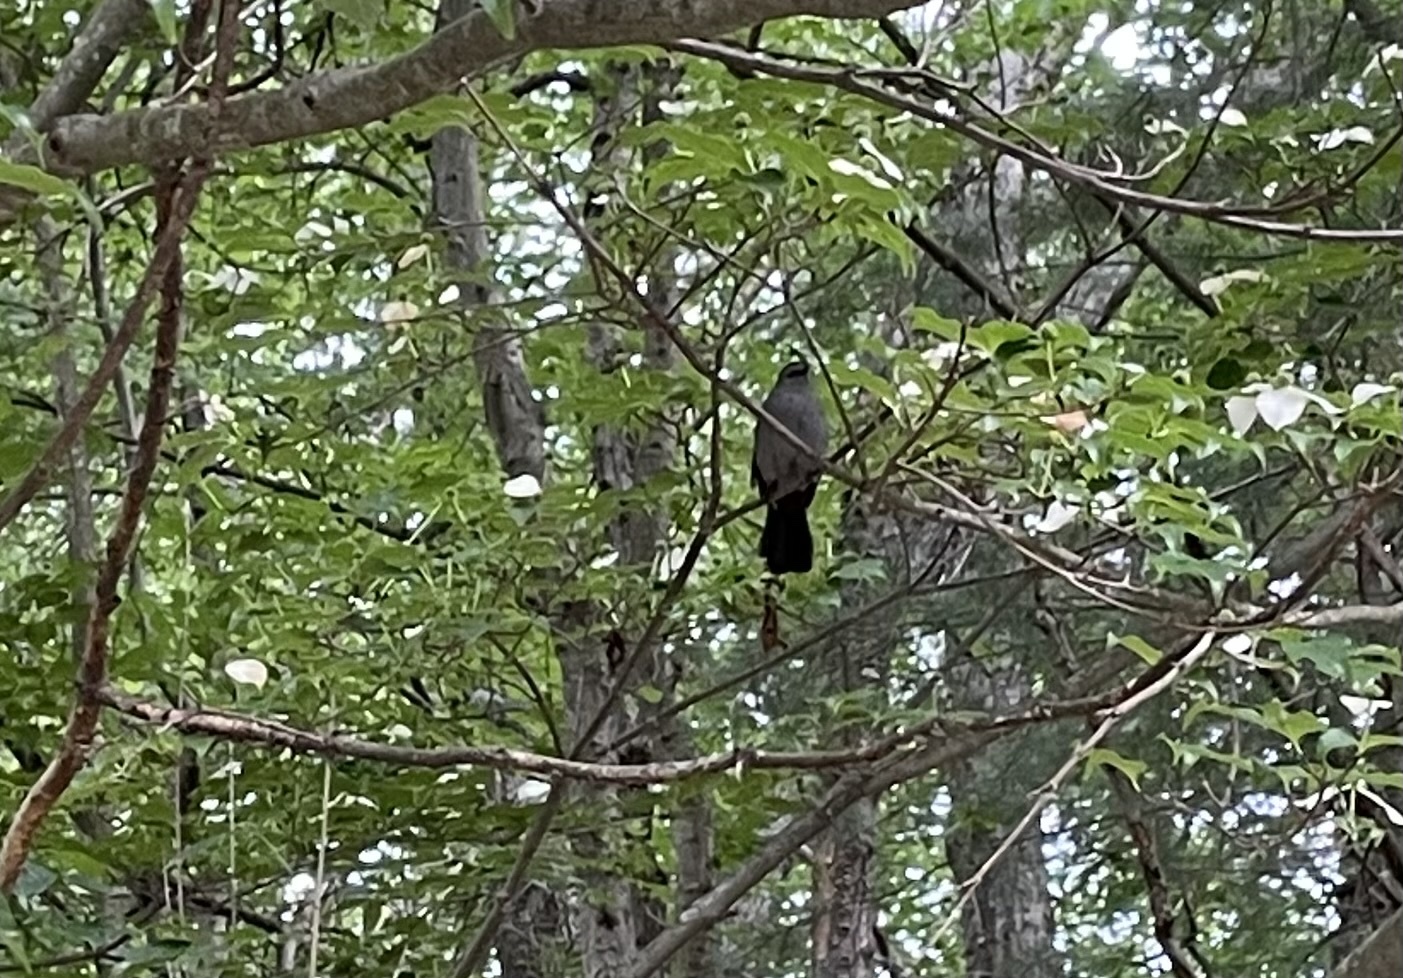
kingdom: Animalia
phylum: Chordata
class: Aves
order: Passeriformes
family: Mimidae
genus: Dumetella
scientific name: Dumetella carolinensis
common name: Gray catbird
